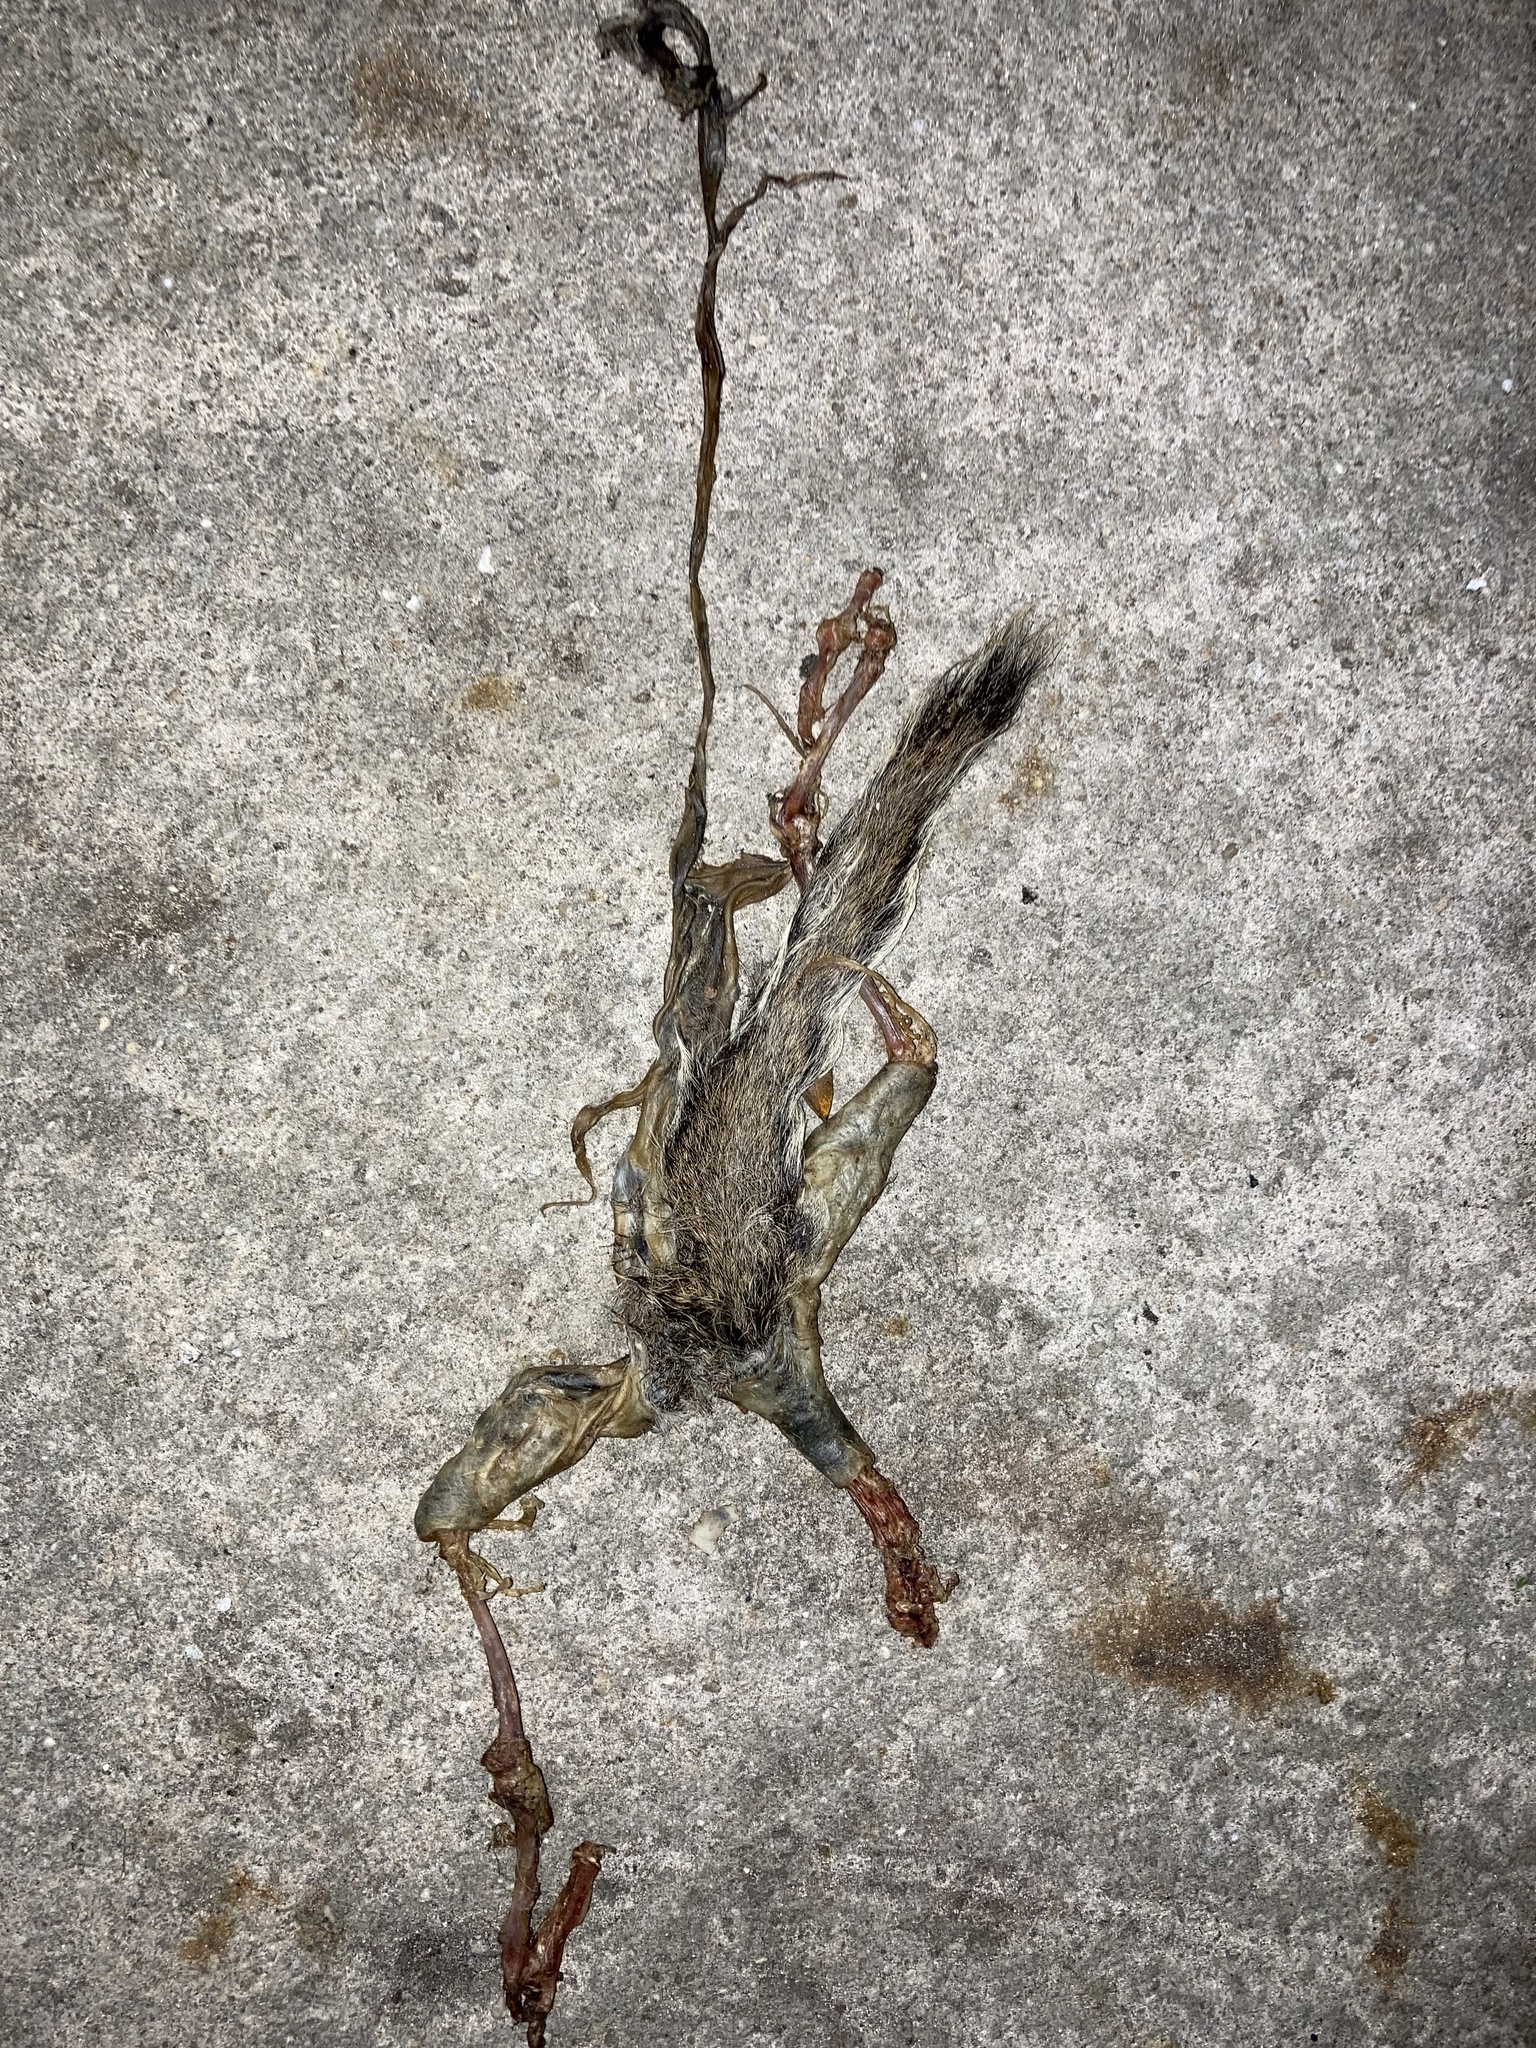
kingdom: Animalia
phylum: Chordata
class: Mammalia
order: Rodentia
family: Sciuridae
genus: Sciurus
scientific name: Sciurus carolinensis
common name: Eastern gray squirrel
